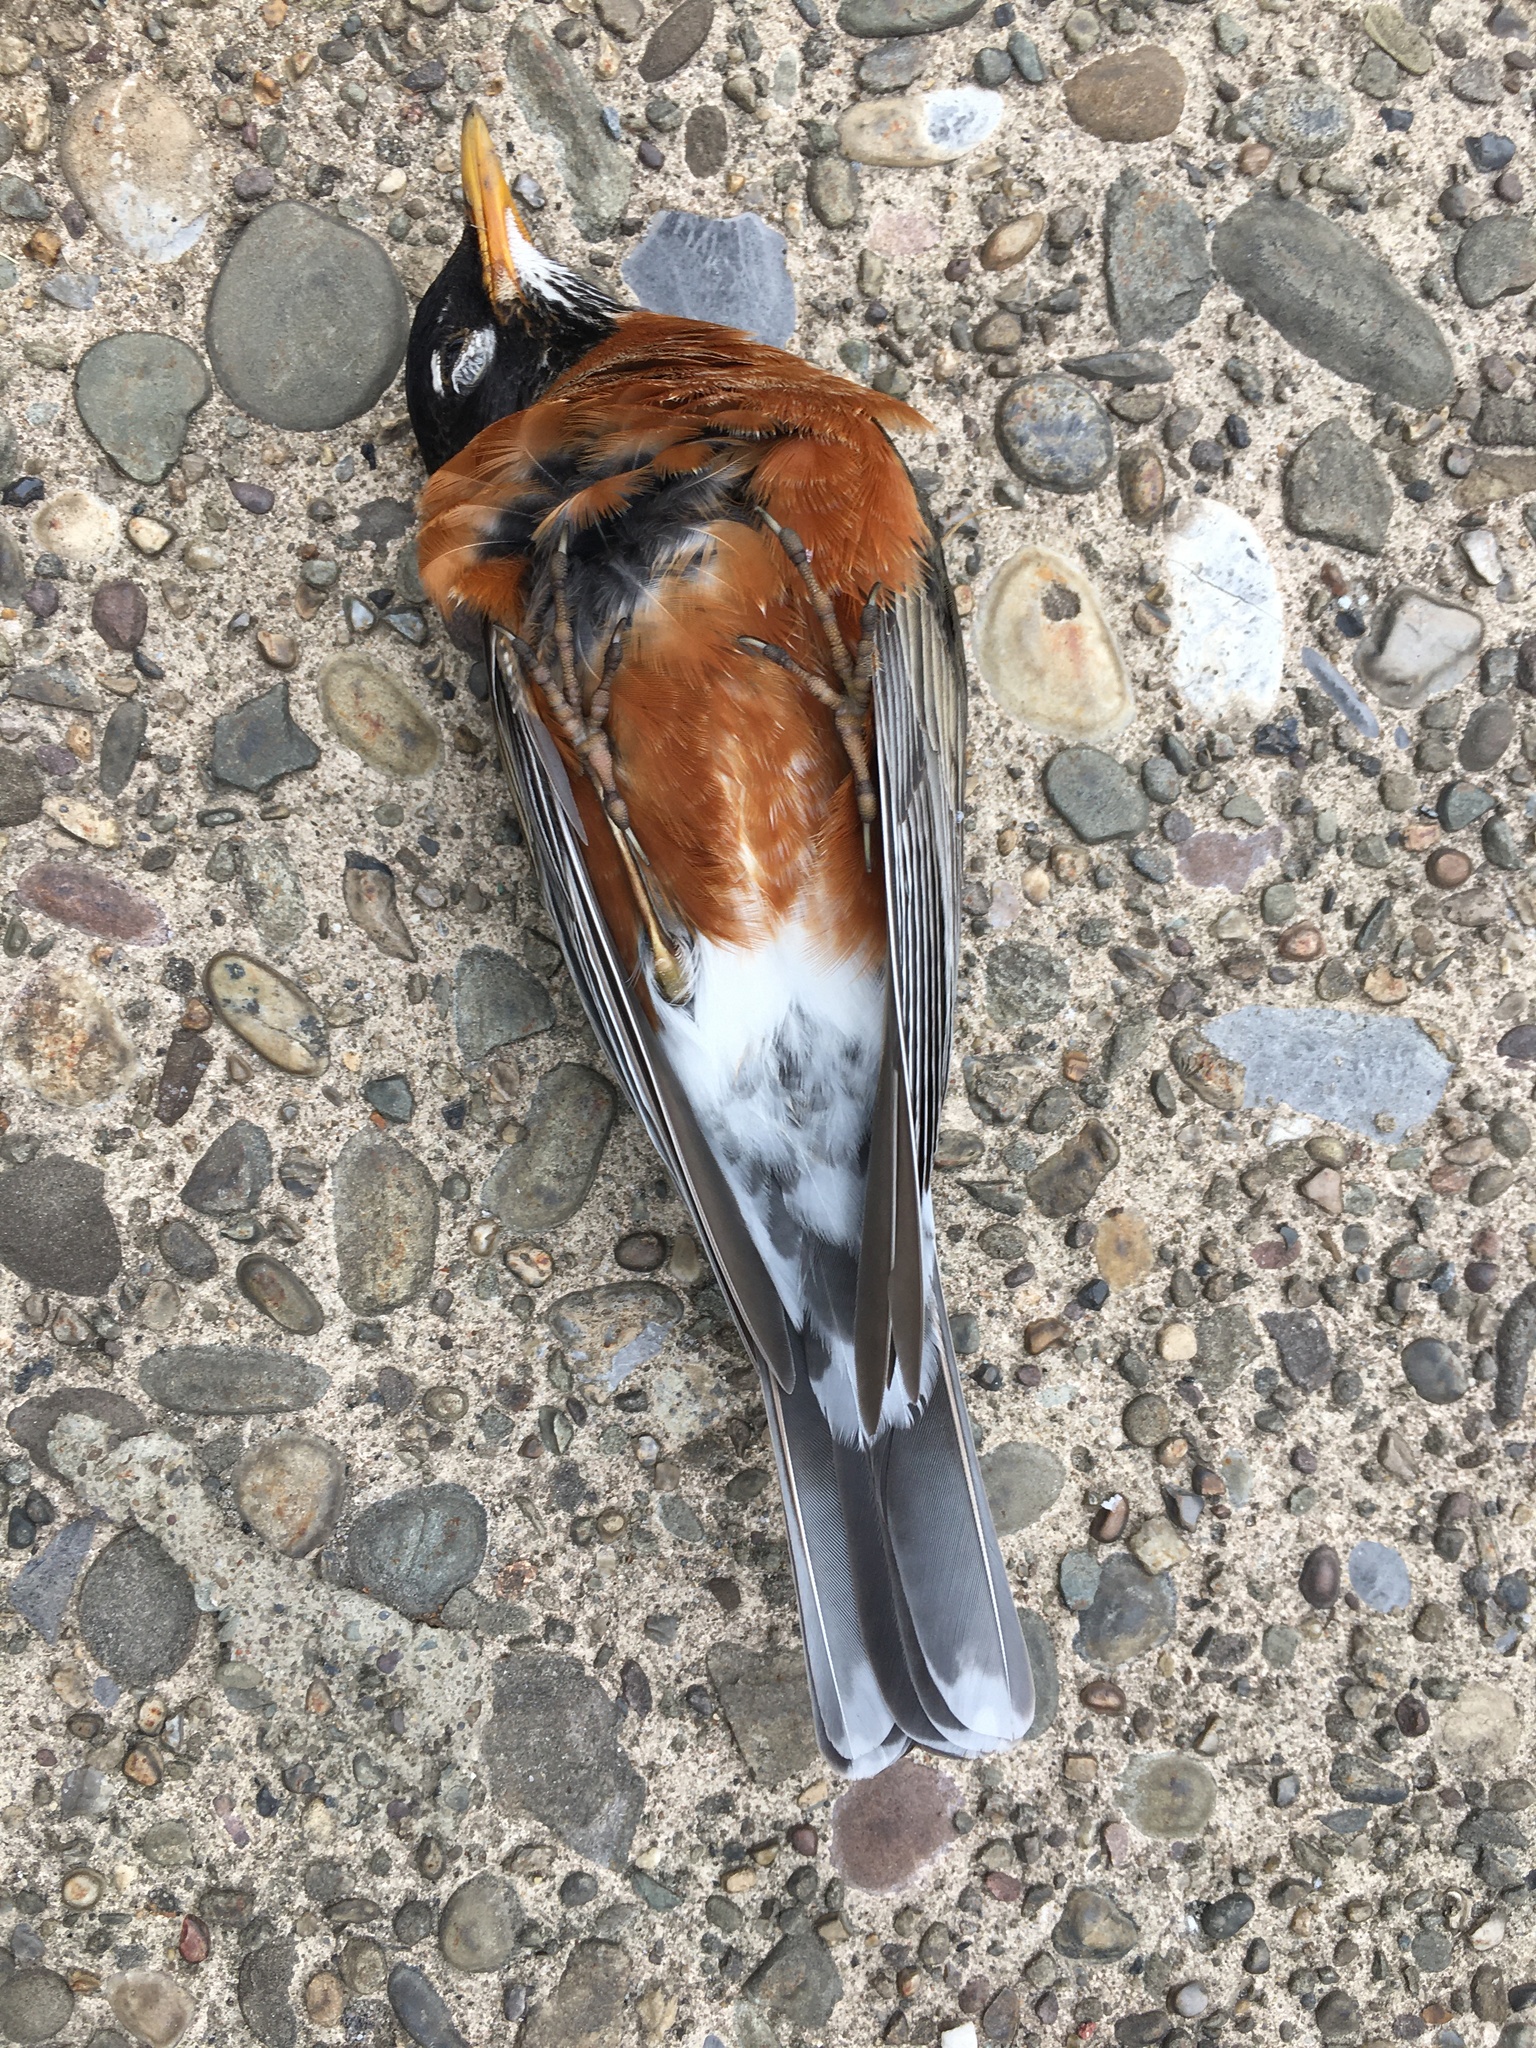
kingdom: Animalia
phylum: Chordata
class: Aves
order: Passeriformes
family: Turdidae
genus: Turdus
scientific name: Turdus migratorius
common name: American robin
